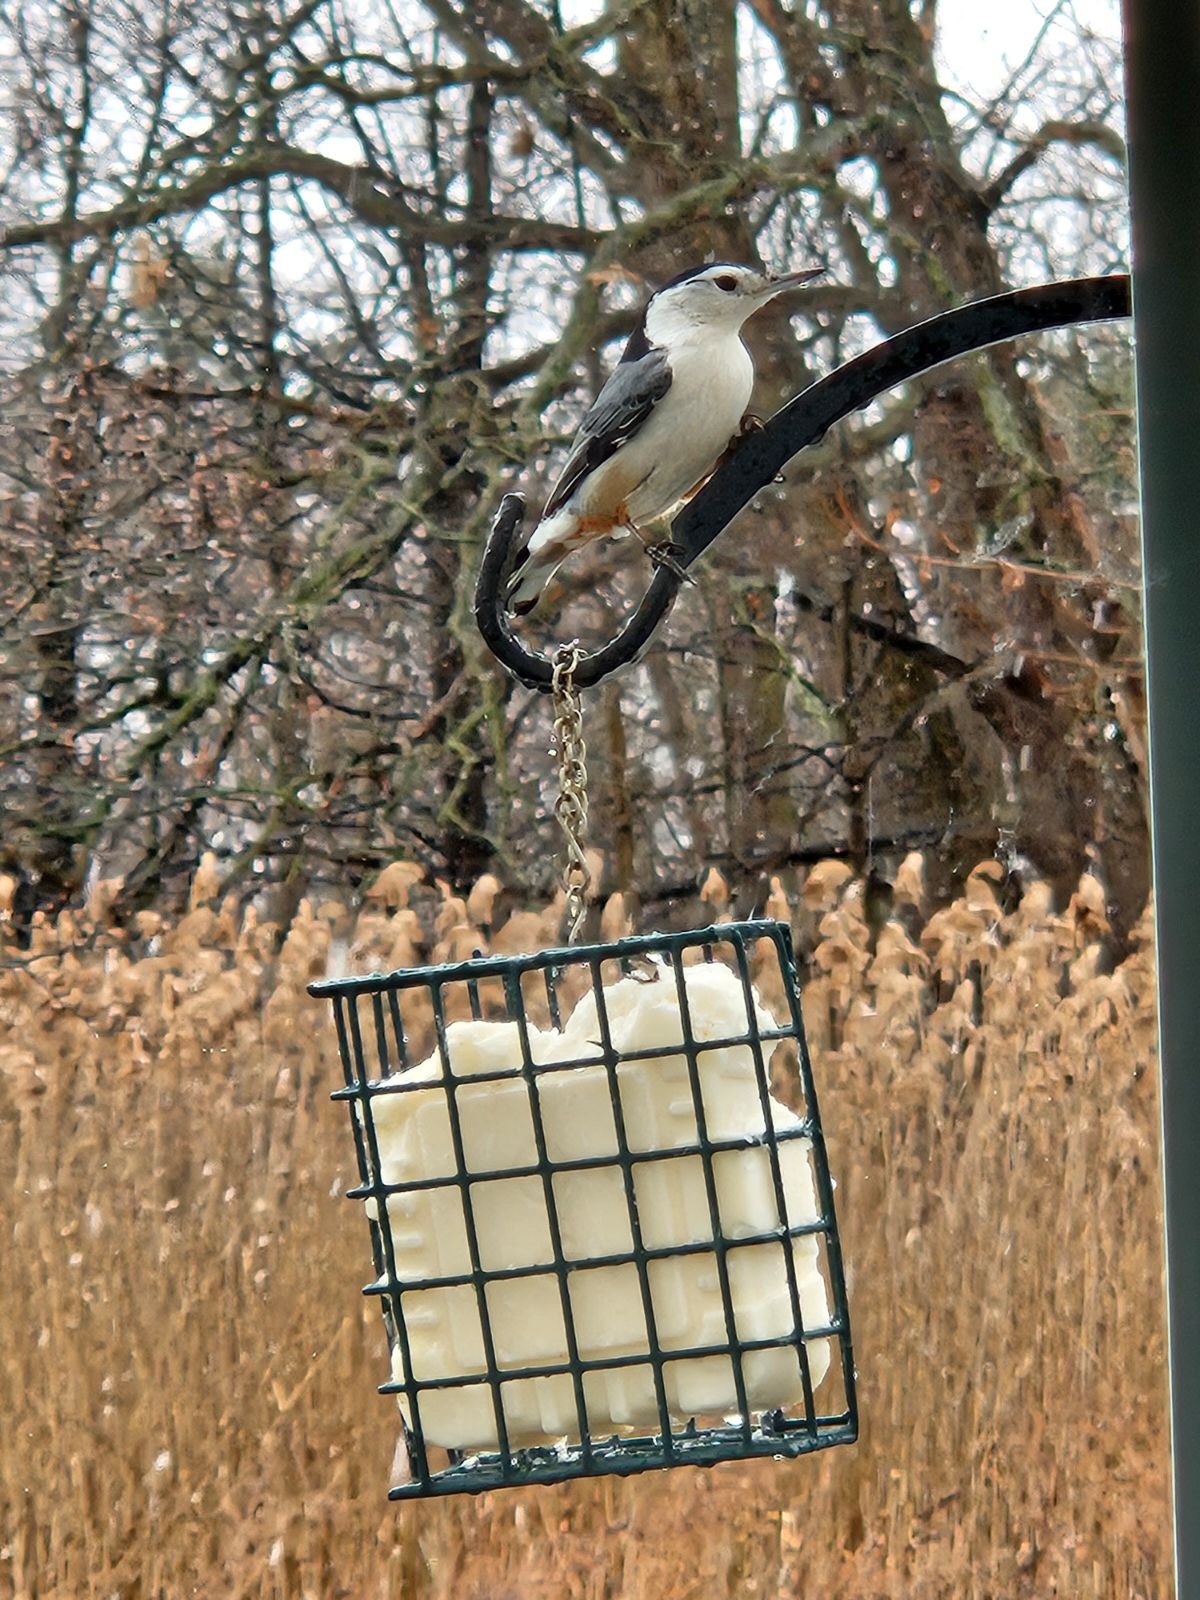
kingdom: Animalia
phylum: Chordata
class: Aves
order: Passeriformes
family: Sittidae
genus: Sitta
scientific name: Sitta carolinensis
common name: White-breasted nuthatch
